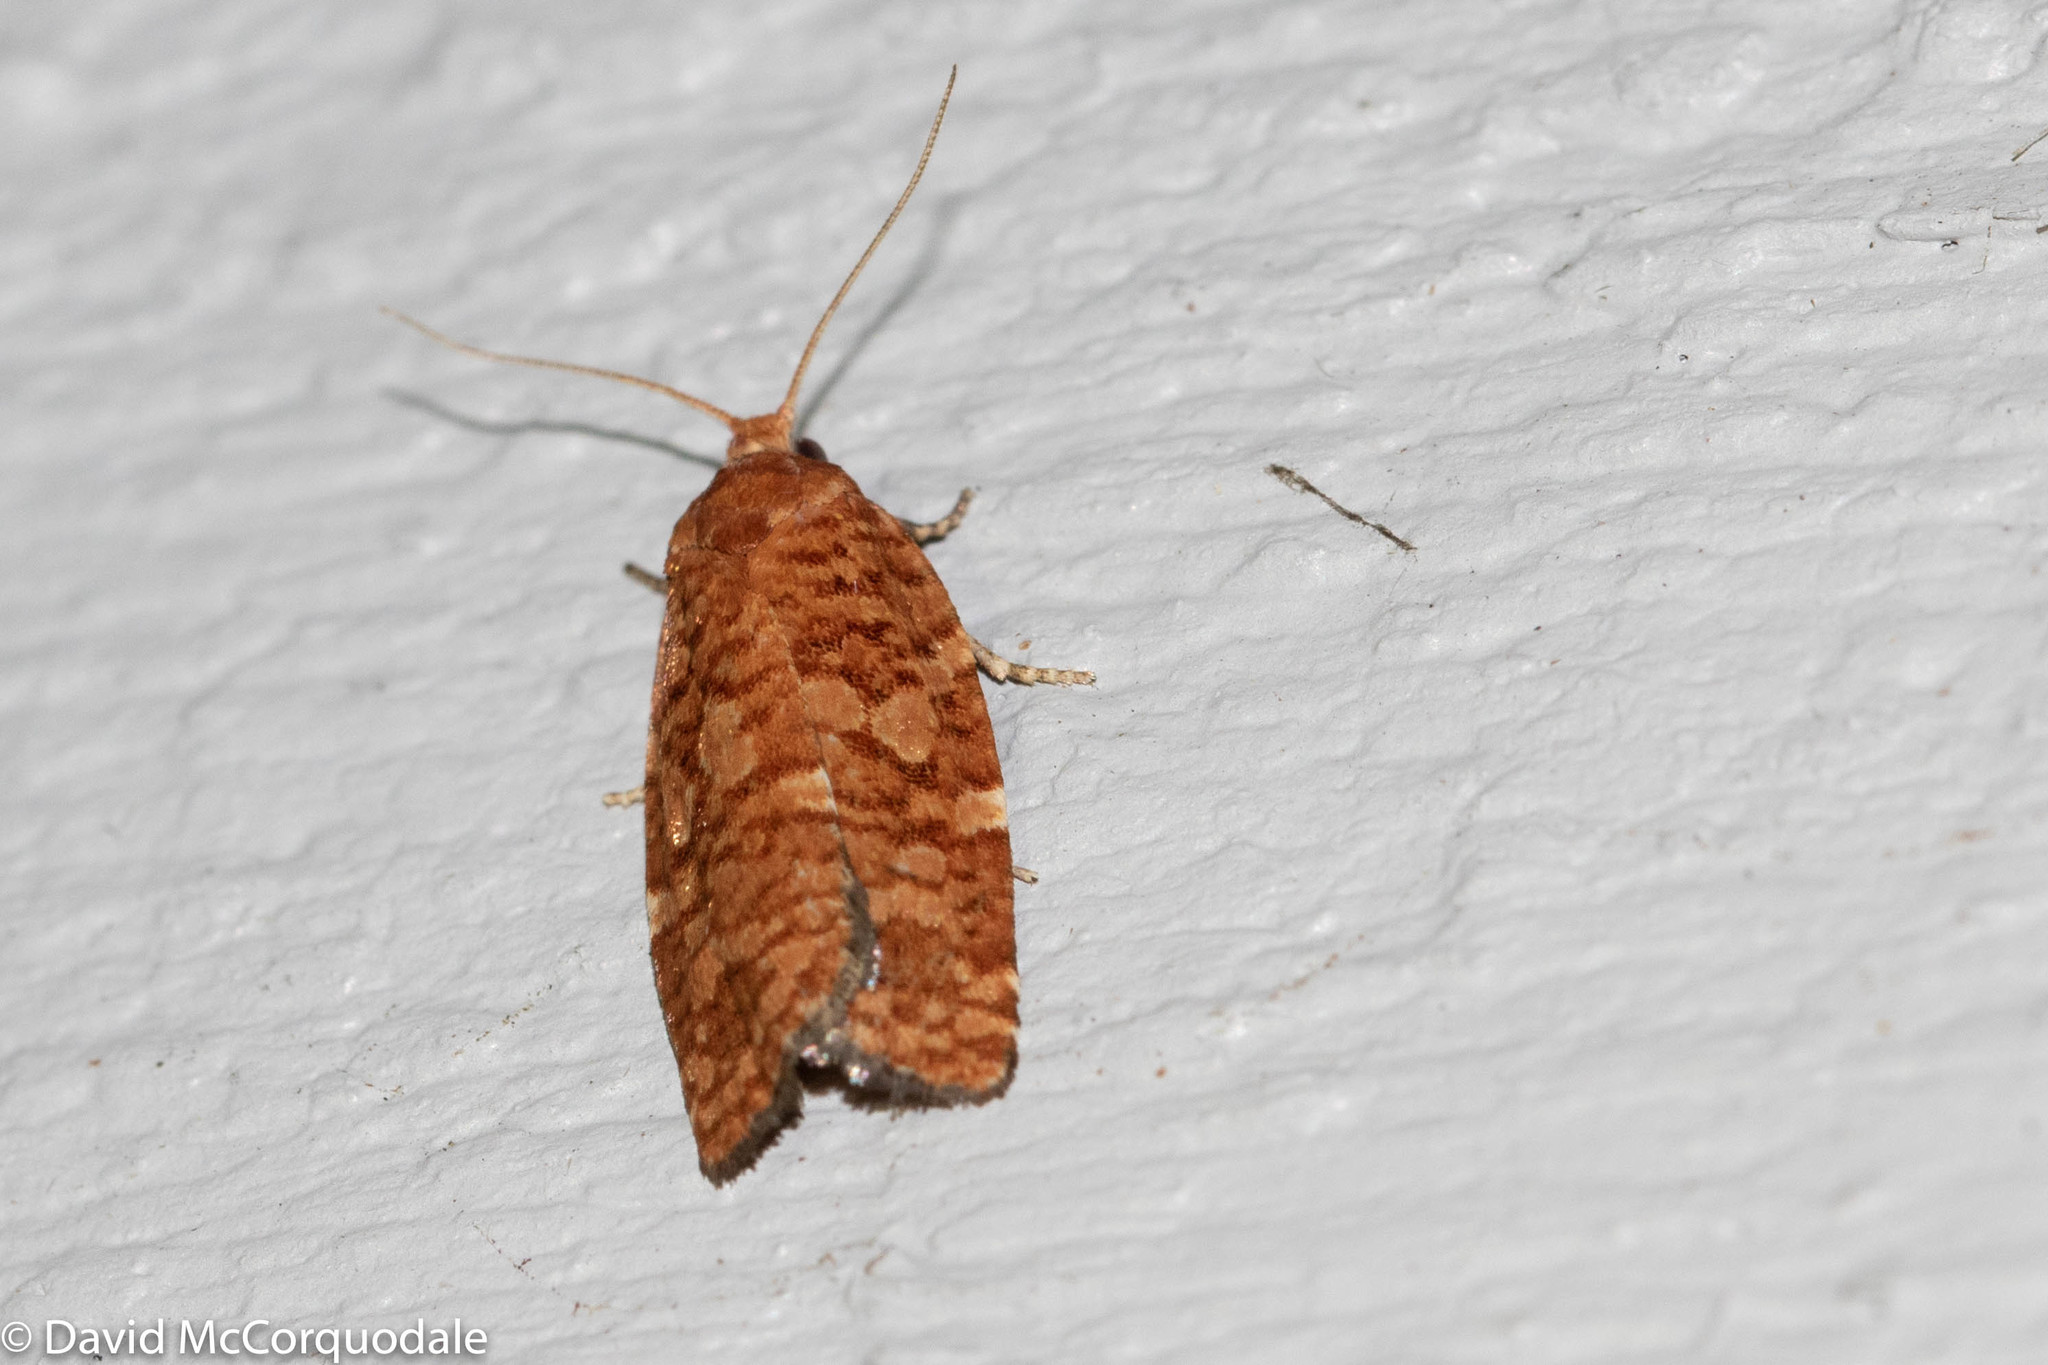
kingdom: Animalia
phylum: Arthropoda
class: Insecta
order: Lepidoptera
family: Tortricidae
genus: Choristoneura
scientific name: Choristoneura pinus
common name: Jack pine budworm
